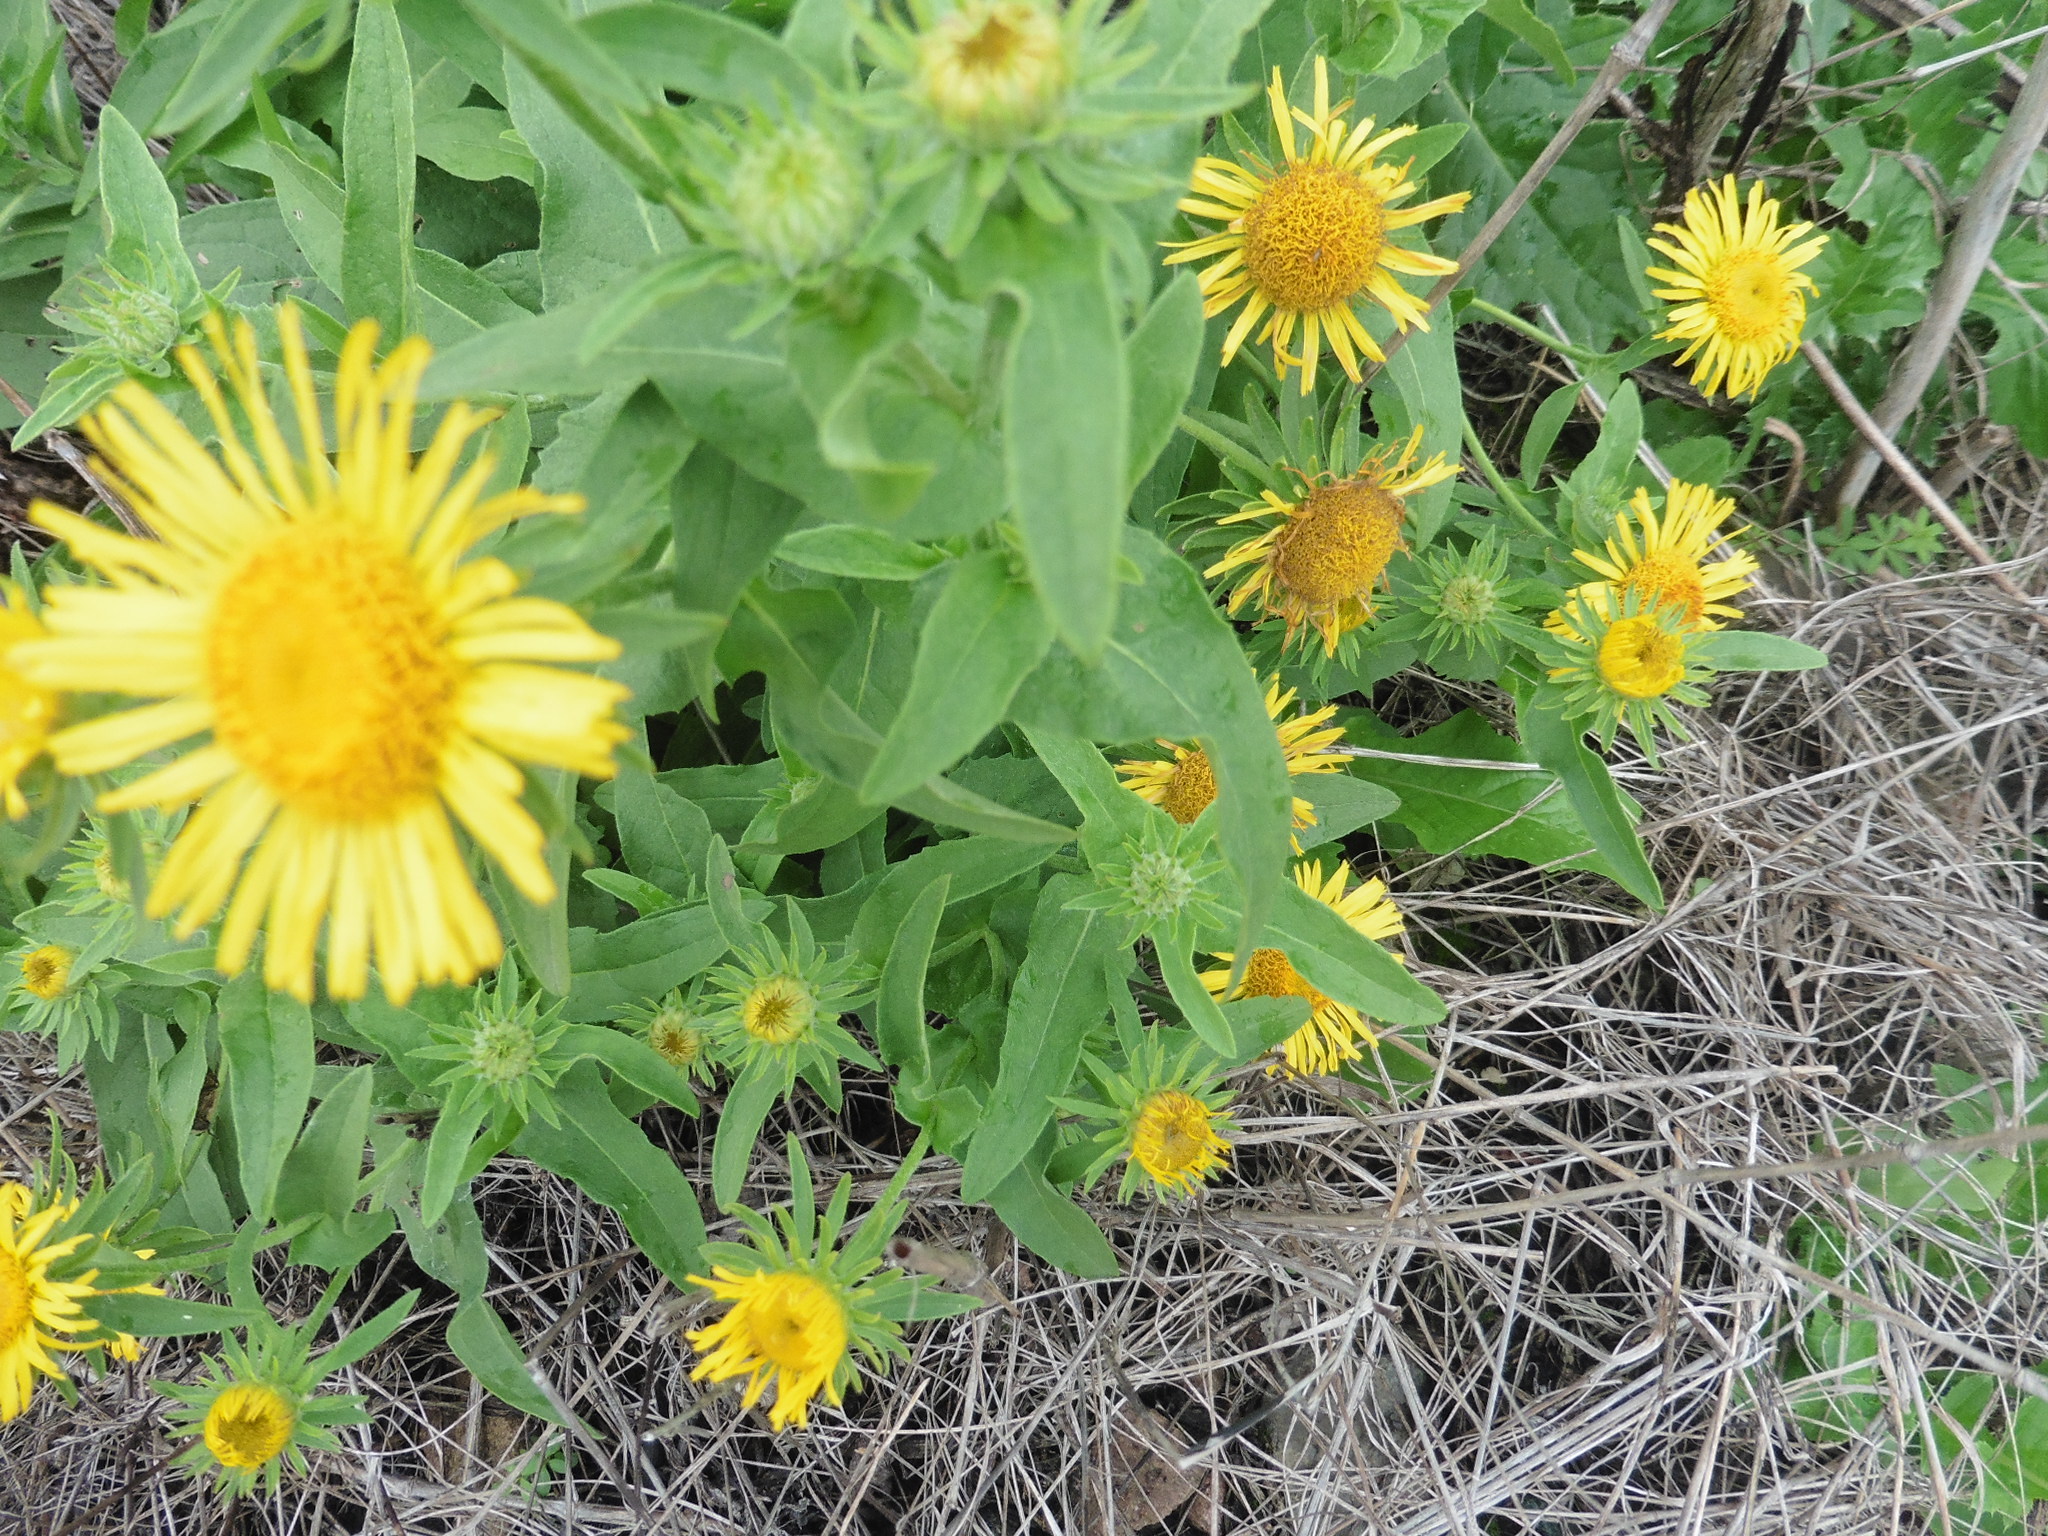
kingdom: Plantae
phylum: Tracheophyta
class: Magnoliopsida
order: Asterales
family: Asteraceae
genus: Pentanema
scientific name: Pentanema britannicum
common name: British elecampane
